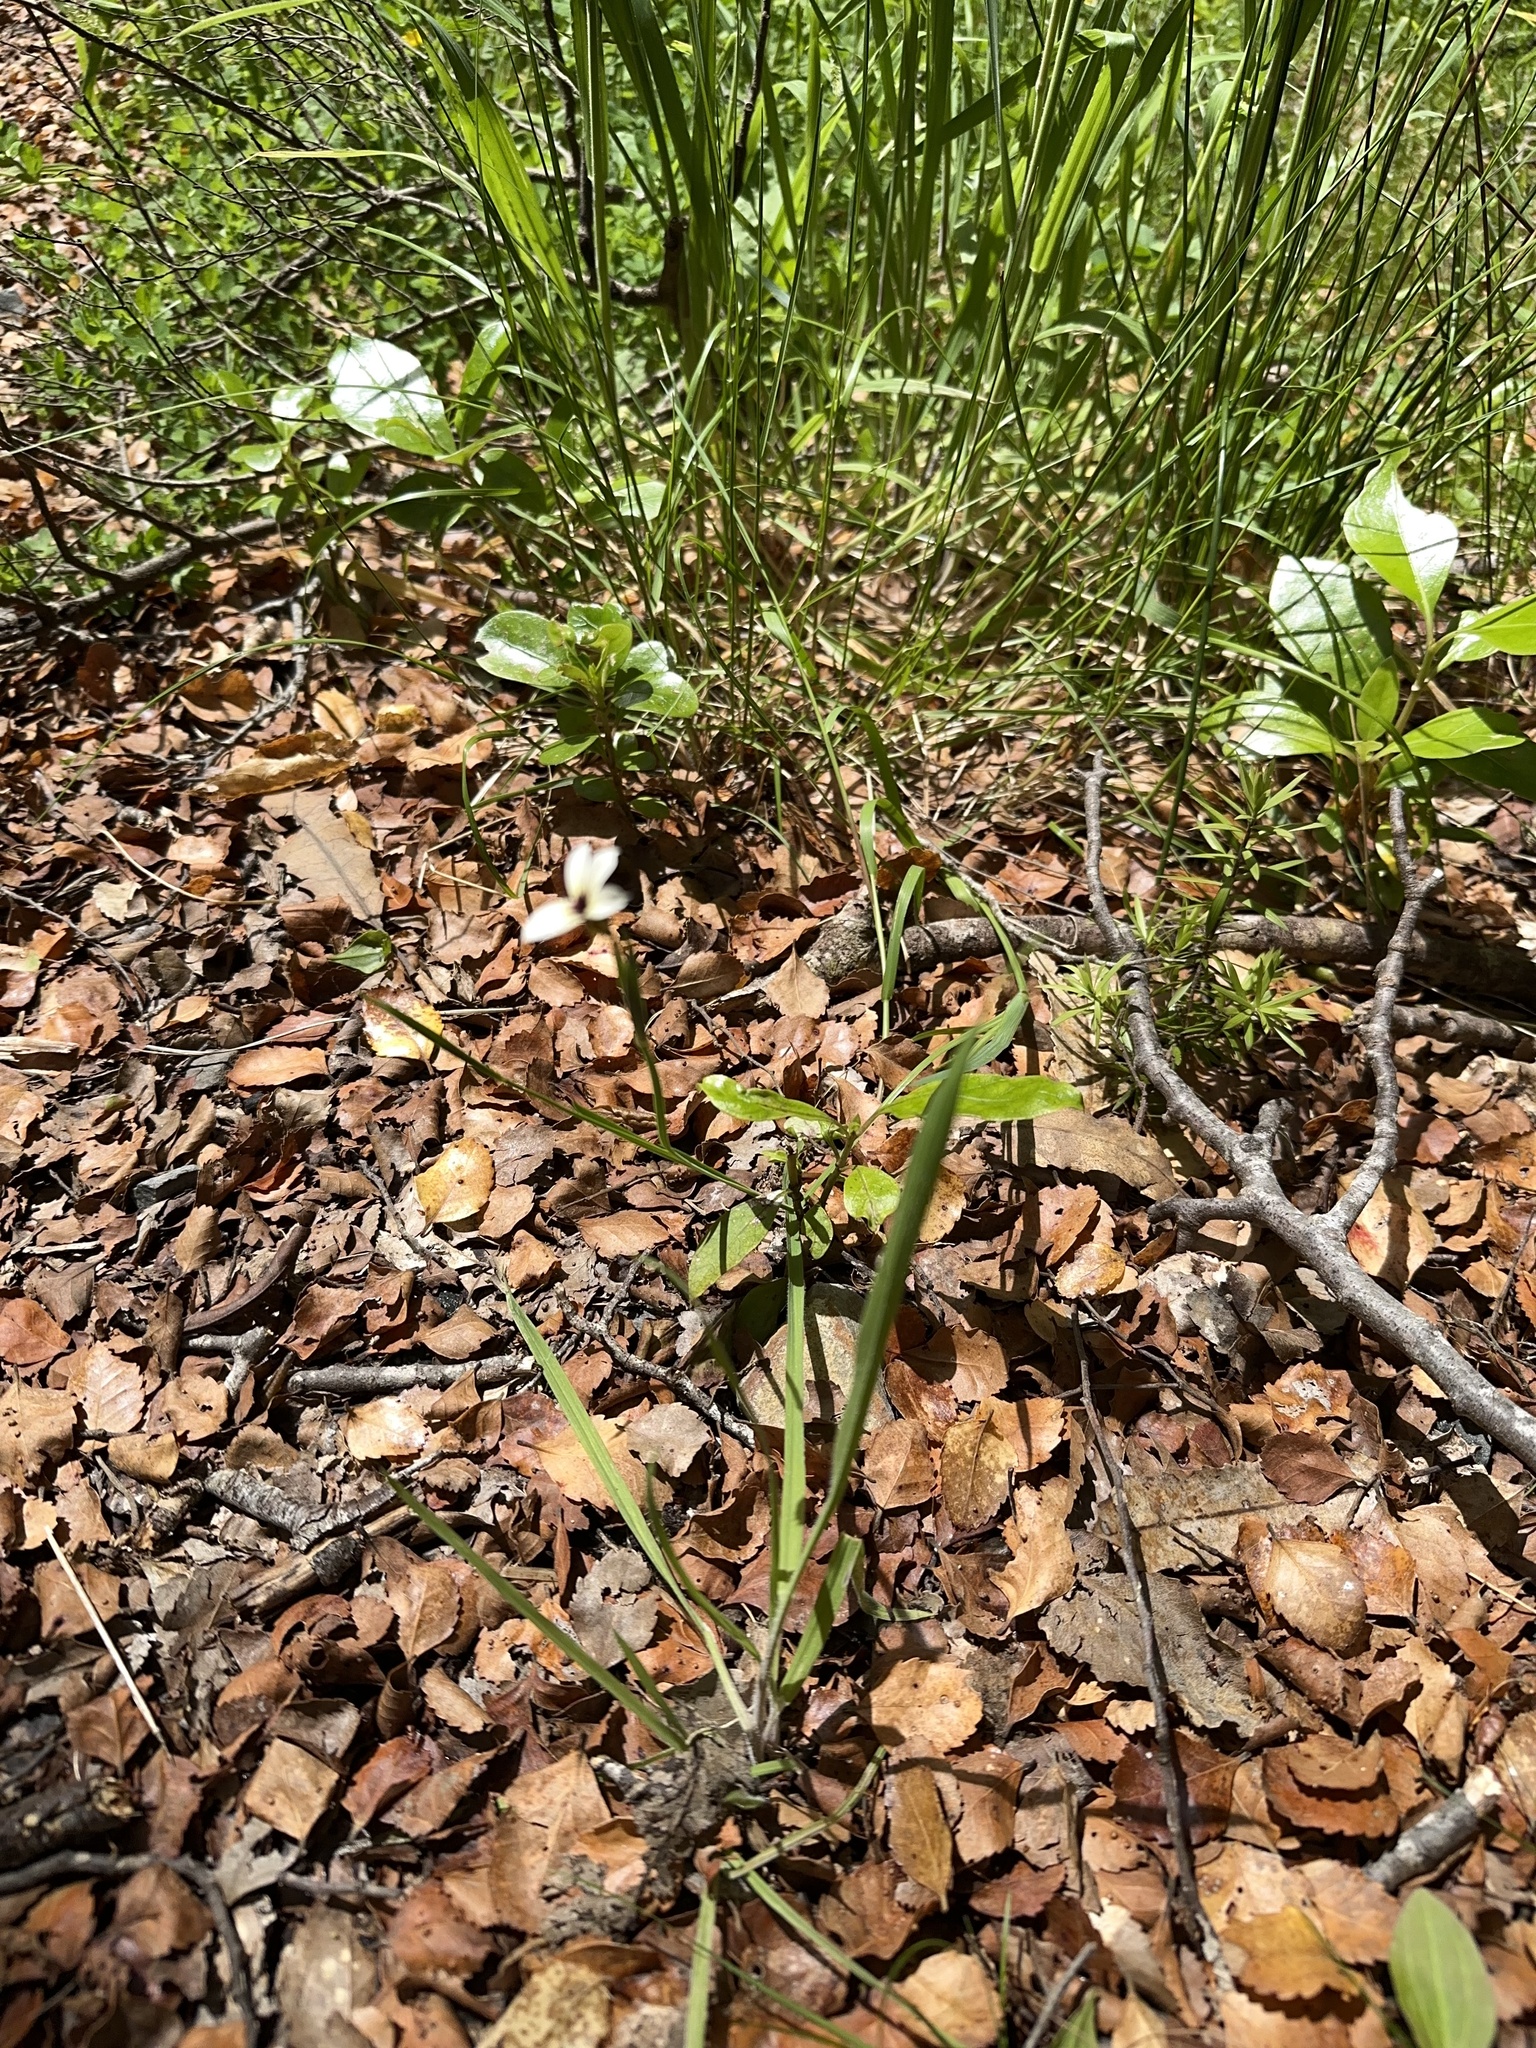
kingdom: Plantae
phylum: Tracheophyta
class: Liliopsida
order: Asparagales
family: Iridaceae
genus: Sisyrinchium
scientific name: Sisyrinchium micranthum
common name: Bermuda pigroot
